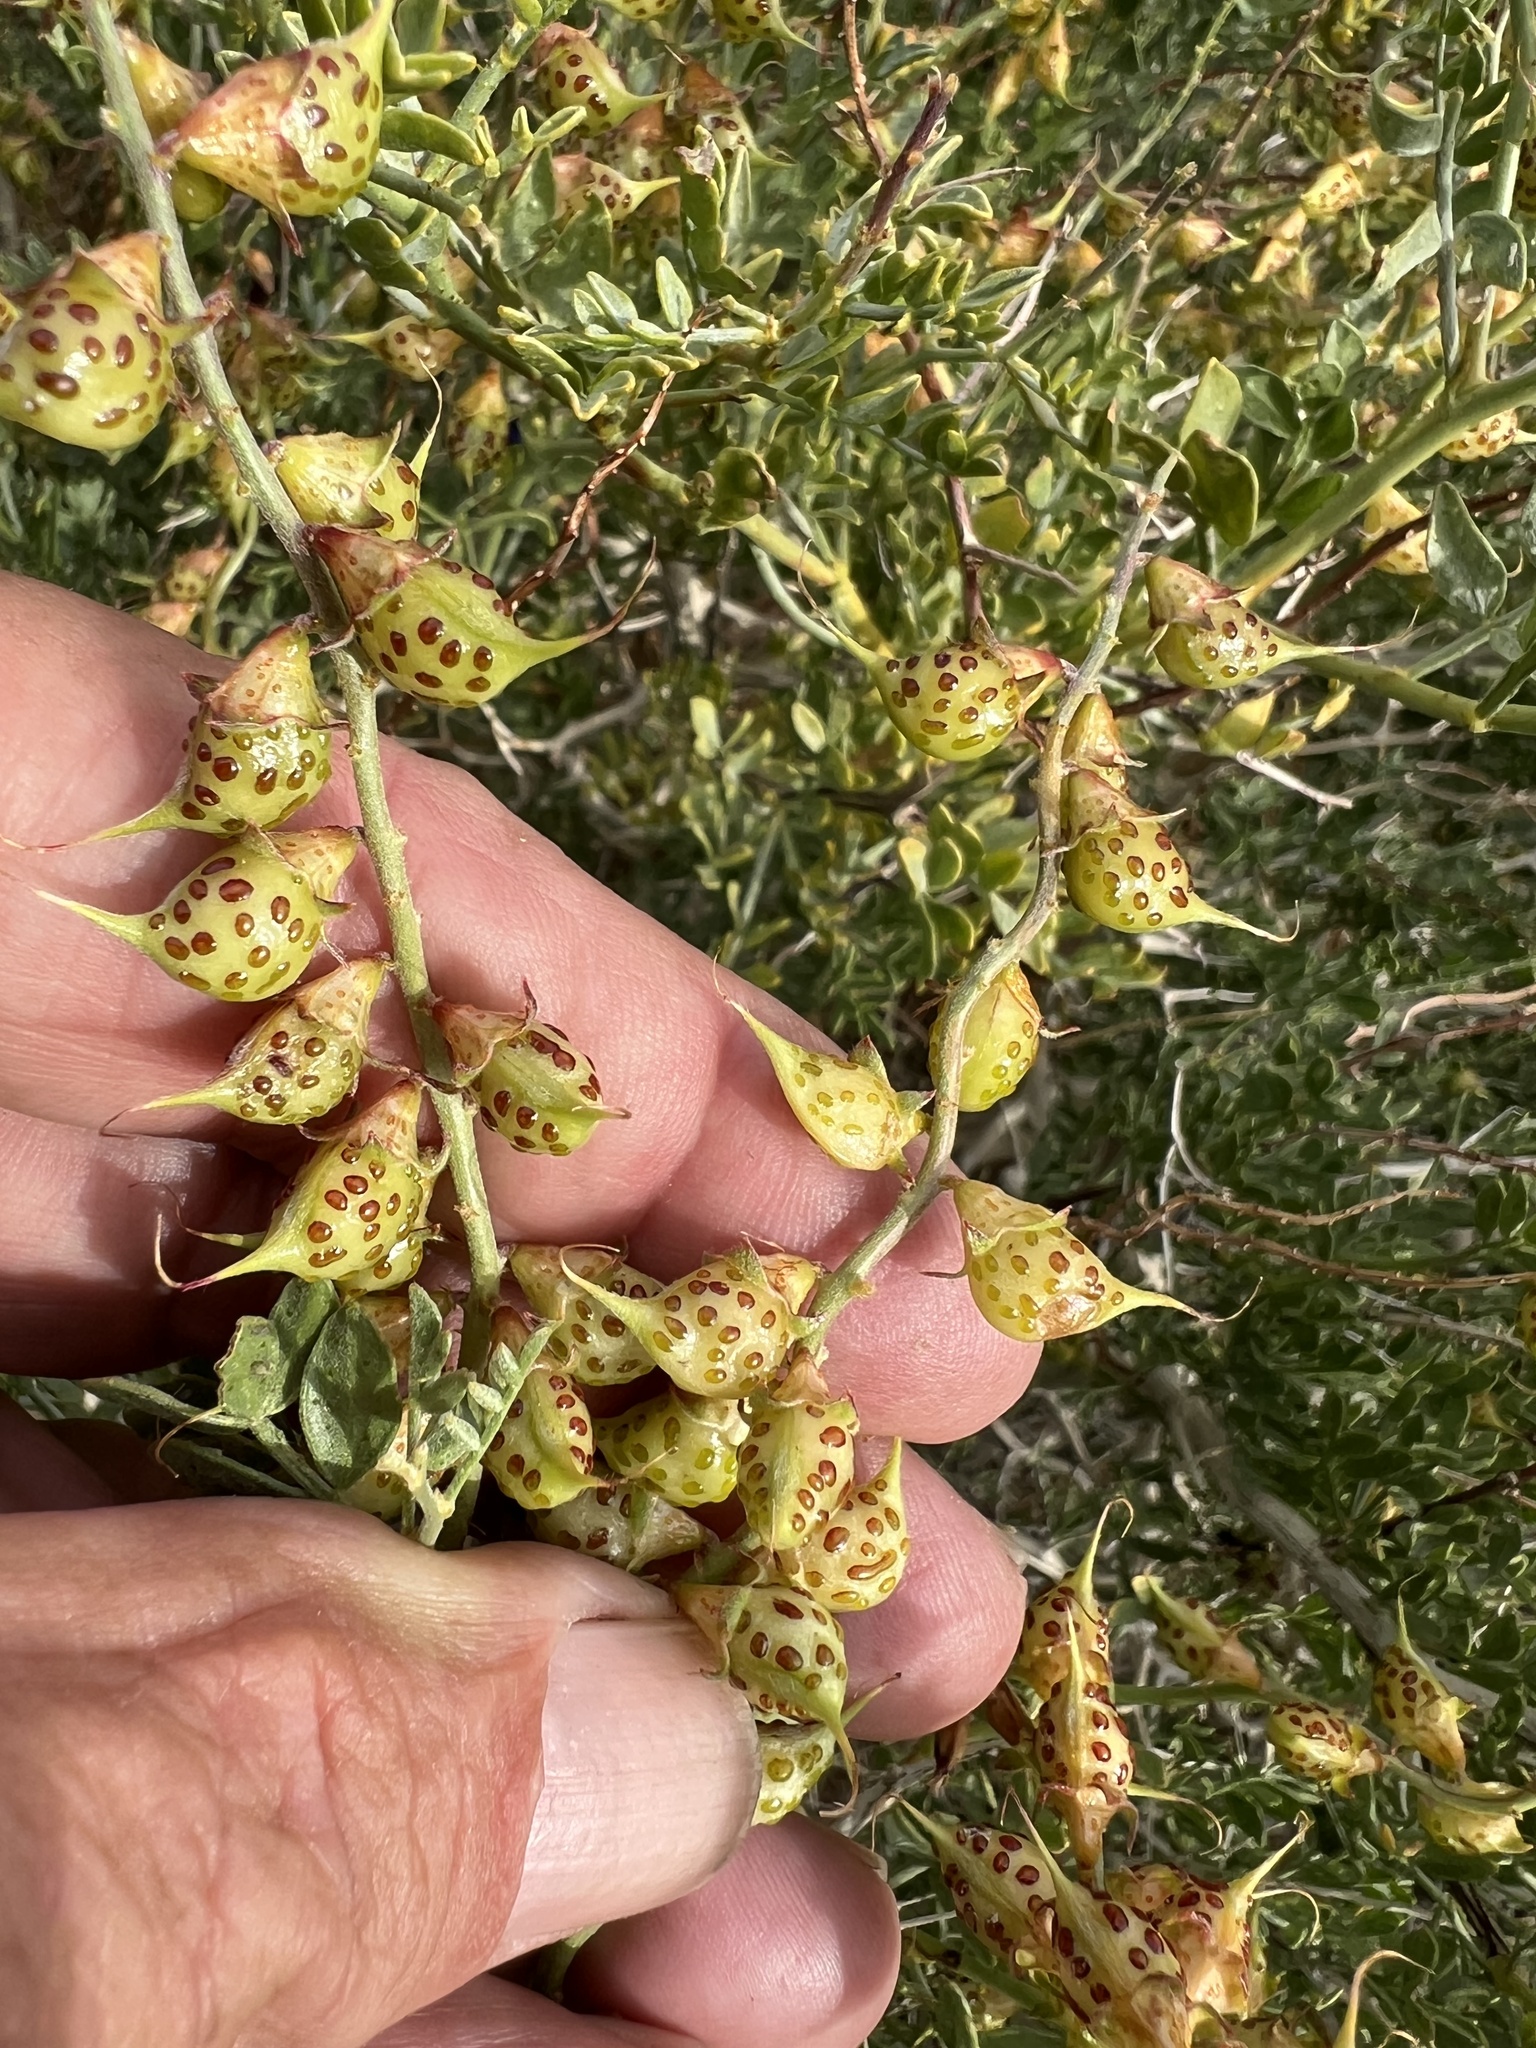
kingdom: Plantae
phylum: Tracheophyta
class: Magnoliopsida
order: Fabales
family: Fabaceae
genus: Psorothamnus
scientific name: Psorothamnus arborescens
